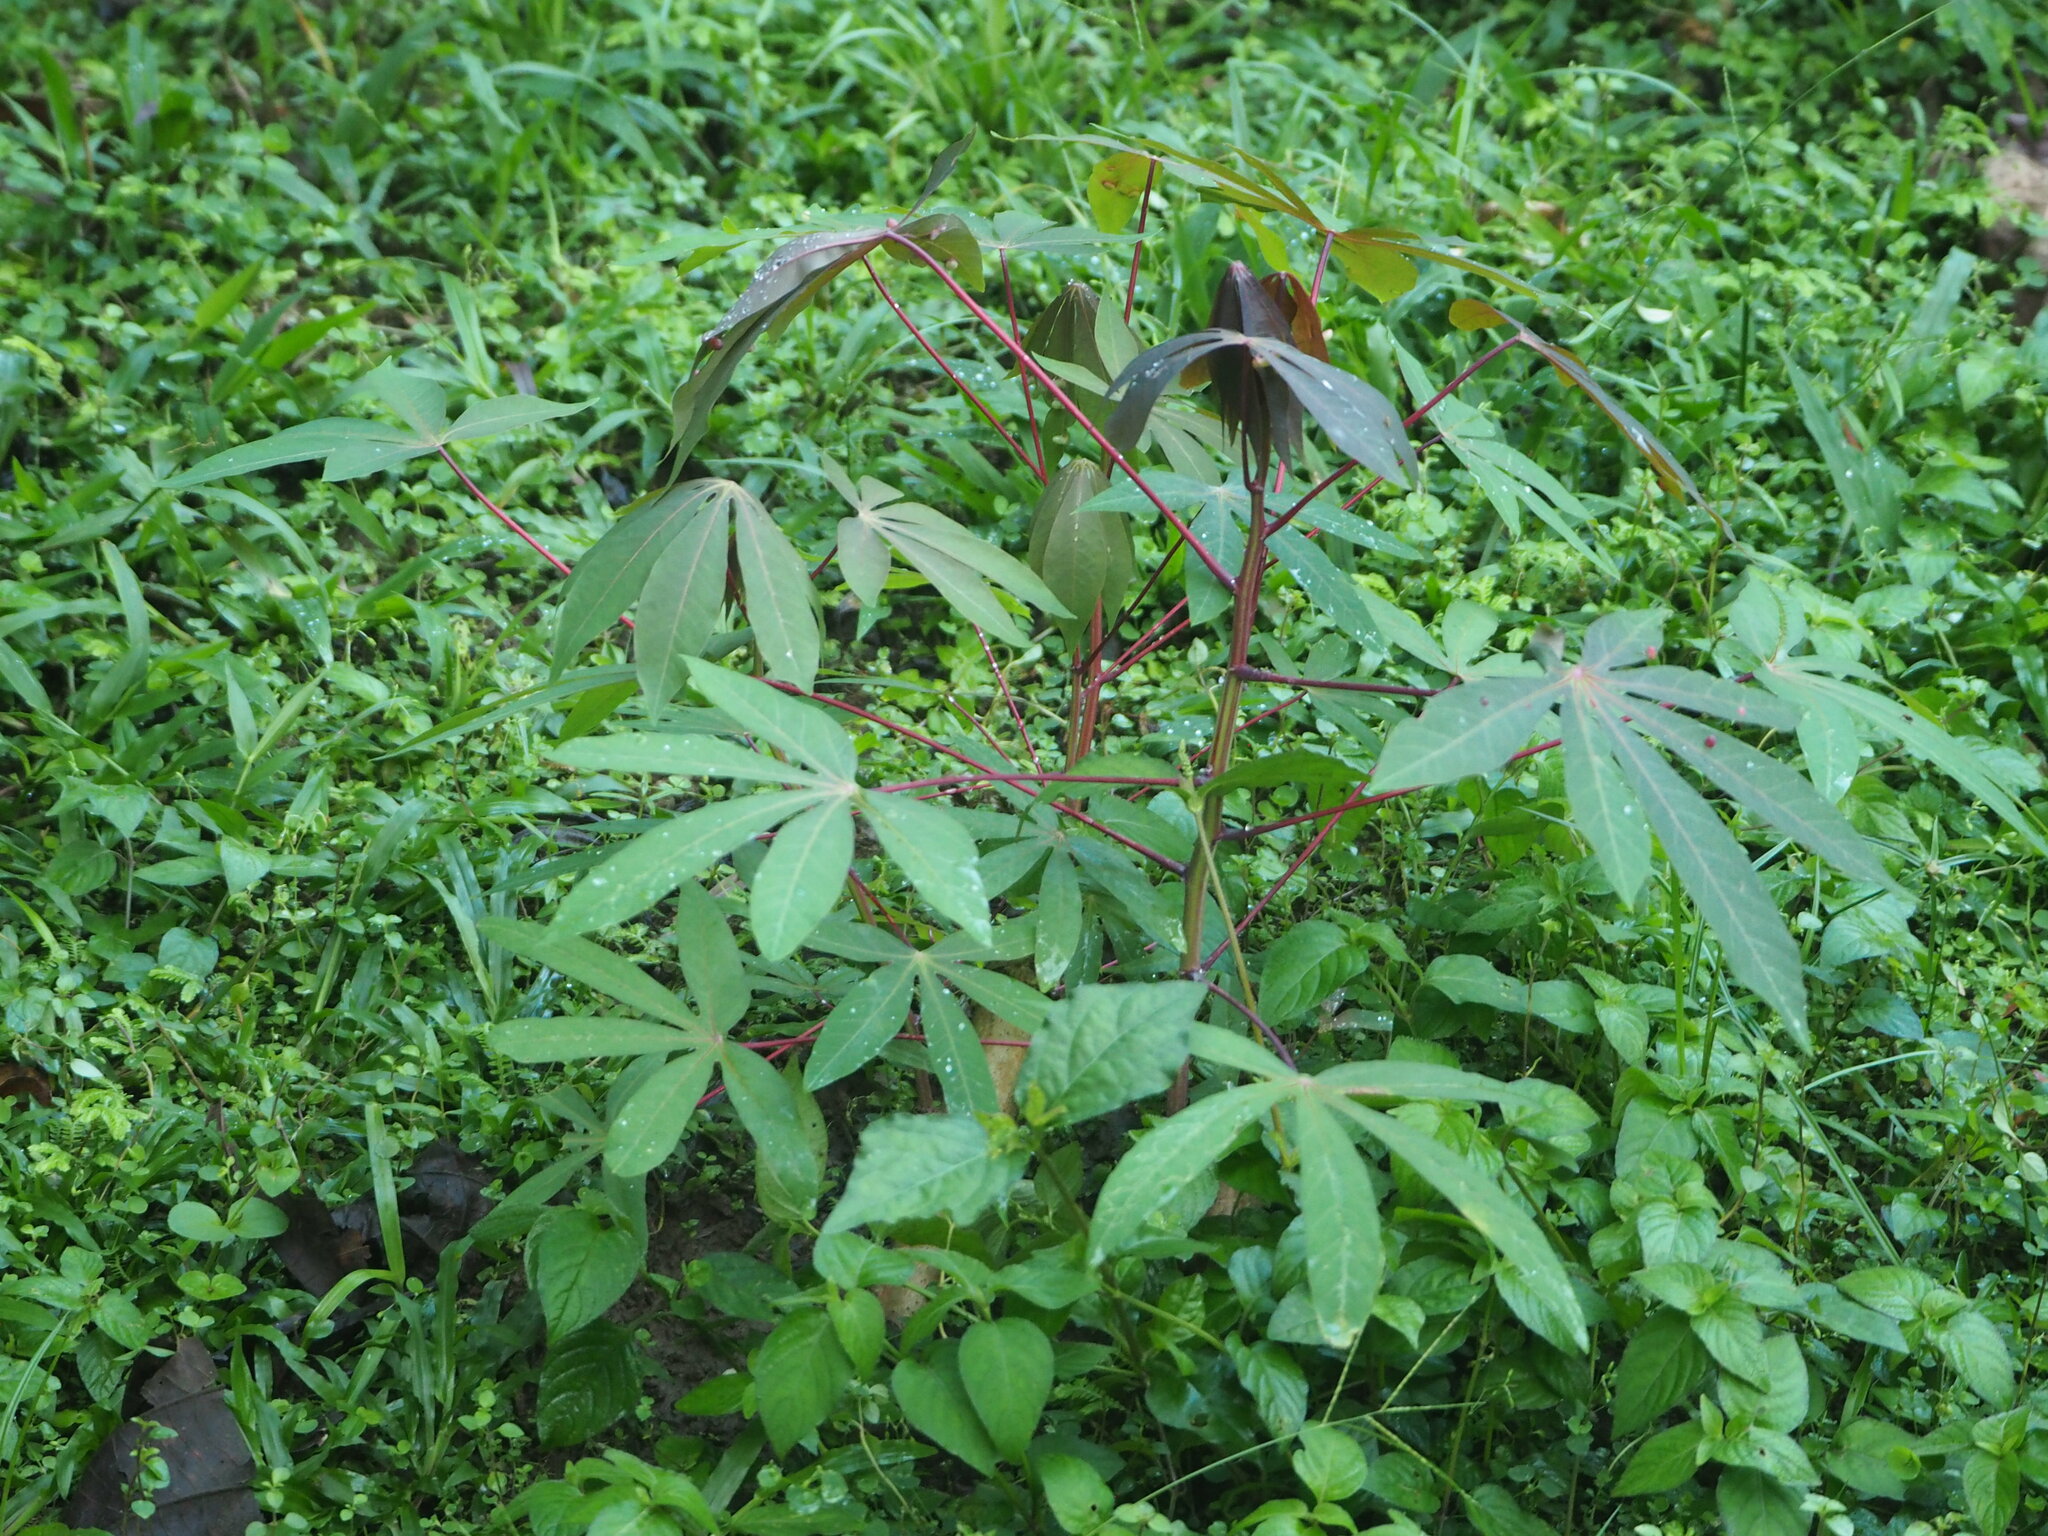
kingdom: Plantae
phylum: Tracheophyta
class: Magnoliopsida
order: Malpighiales
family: Euphorbiaceae
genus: Manihot
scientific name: Manihot esculenta
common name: Cassava
